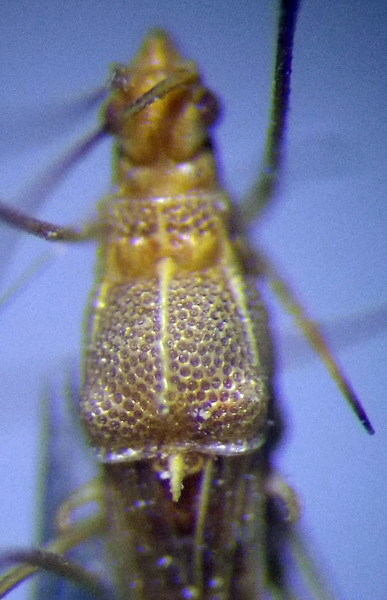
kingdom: Animalia
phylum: Arthropoda
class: Insecta
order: Hemiptera
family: Berytidae
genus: Metacanthus
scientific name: Metacanthus meridionalis
